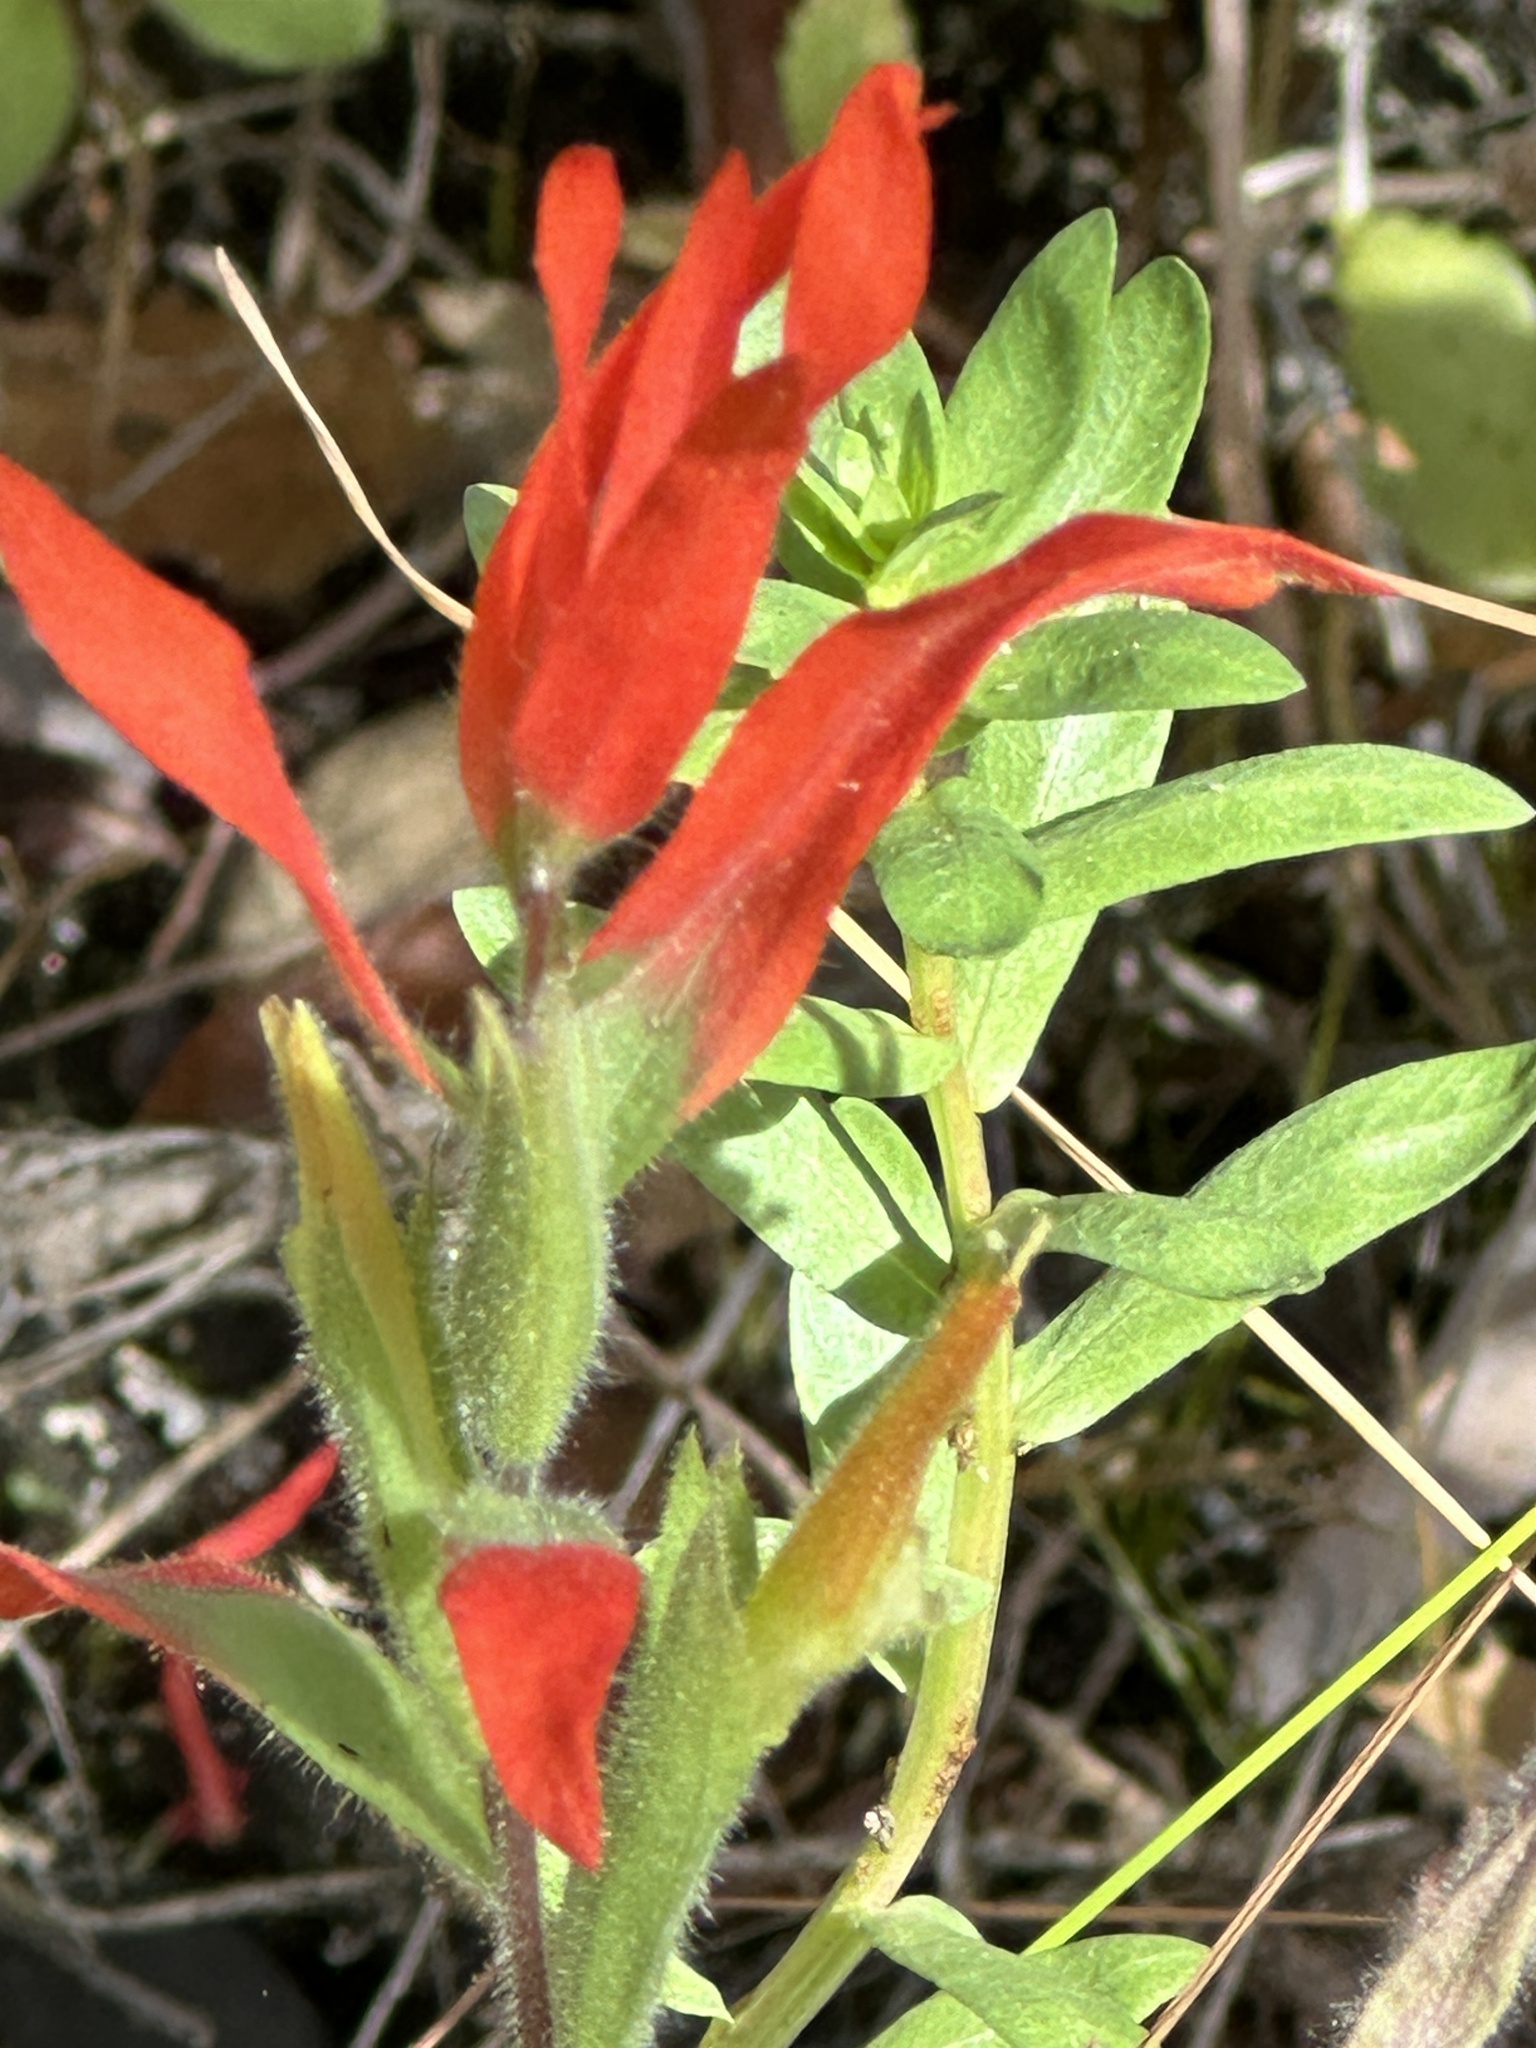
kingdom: Plantae
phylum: Tracheophyta
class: Magnoliopsida
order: Lamiales
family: Orobanchaceae
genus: Castilleja
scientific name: Castilleja minor
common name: Seep paintbrush
